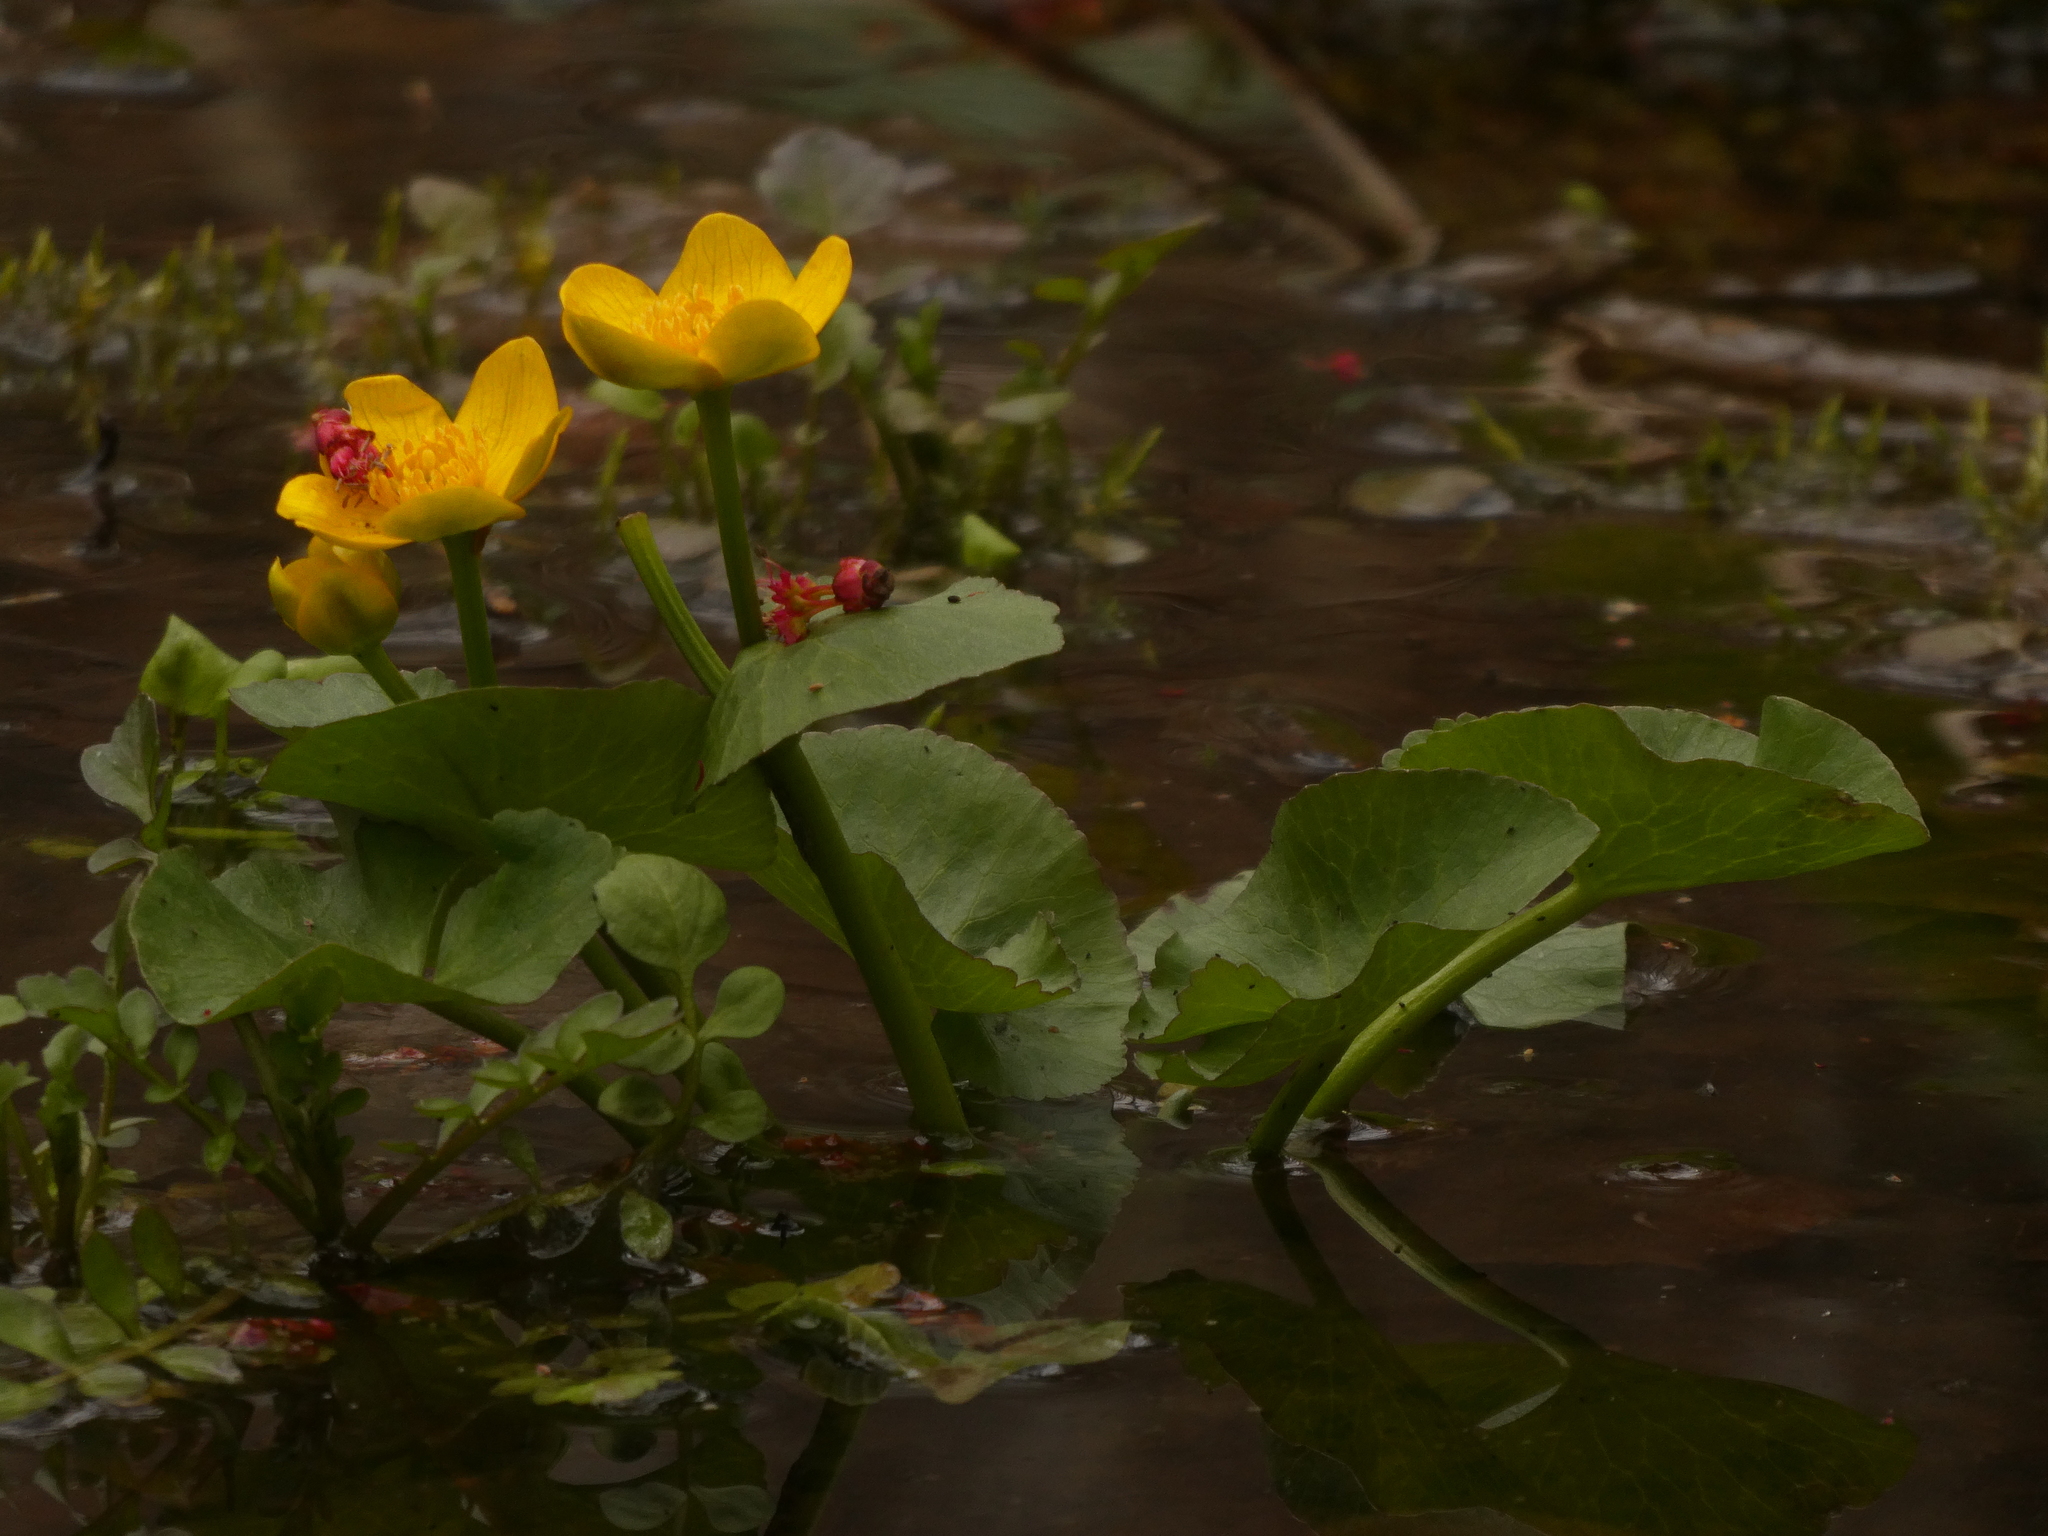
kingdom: Plantae
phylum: Tracheophyta
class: Magnoliopsida
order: Ranunculales
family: Ranunculaceae
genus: Caltha
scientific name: Caltha palustris
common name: Marsh marigold
